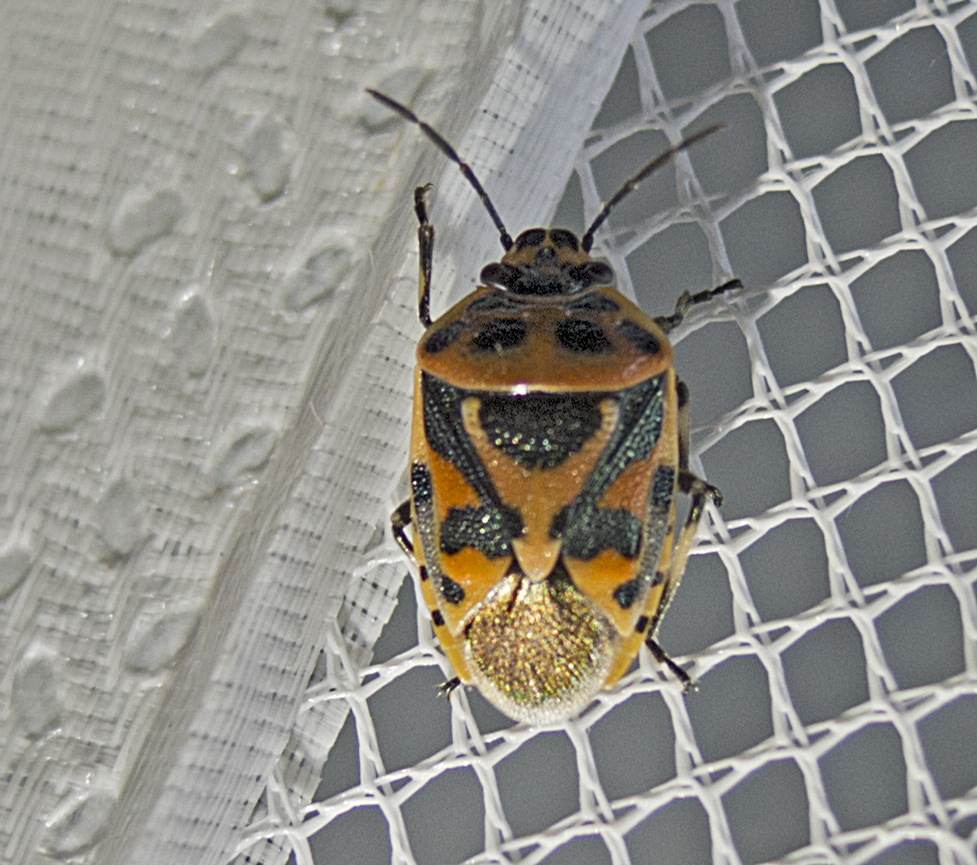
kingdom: Animalia
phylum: Arthropoda
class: Insecta
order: Hemiptera
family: Pentatomidae
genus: Eurydema
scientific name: Eurydema ornata
